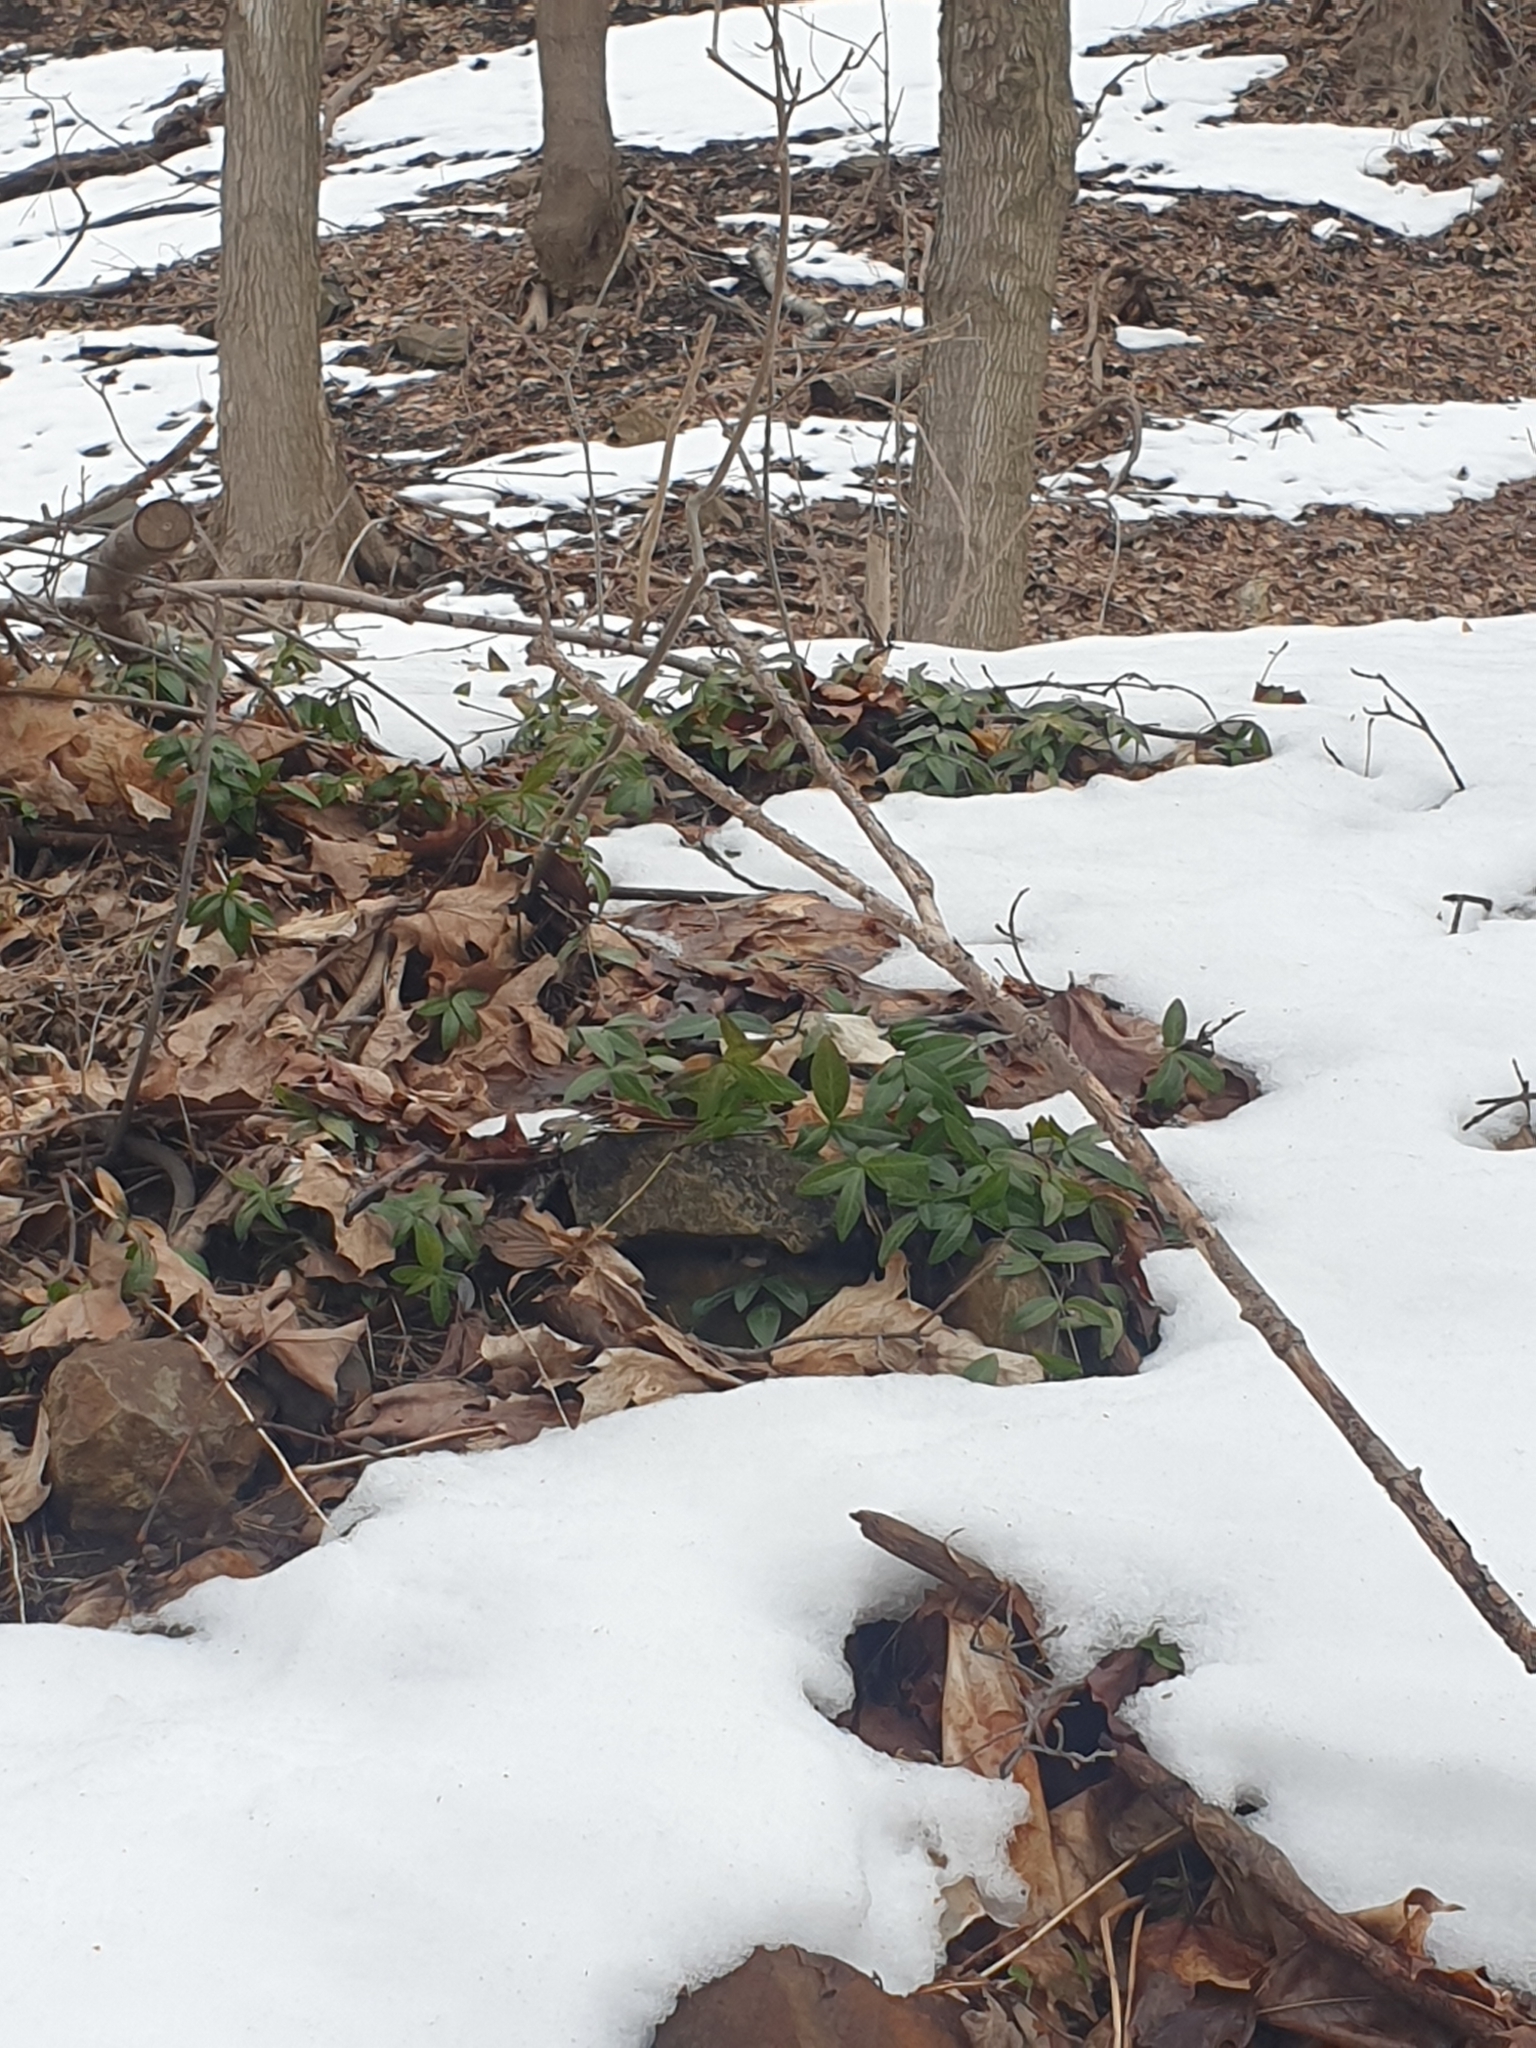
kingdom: Plantae
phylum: Tracheophyta
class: Magnoliopsida
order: Gentianales
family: Apocynaceae
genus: Vinca
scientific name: Vinca minor
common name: Lesser periwinkle
